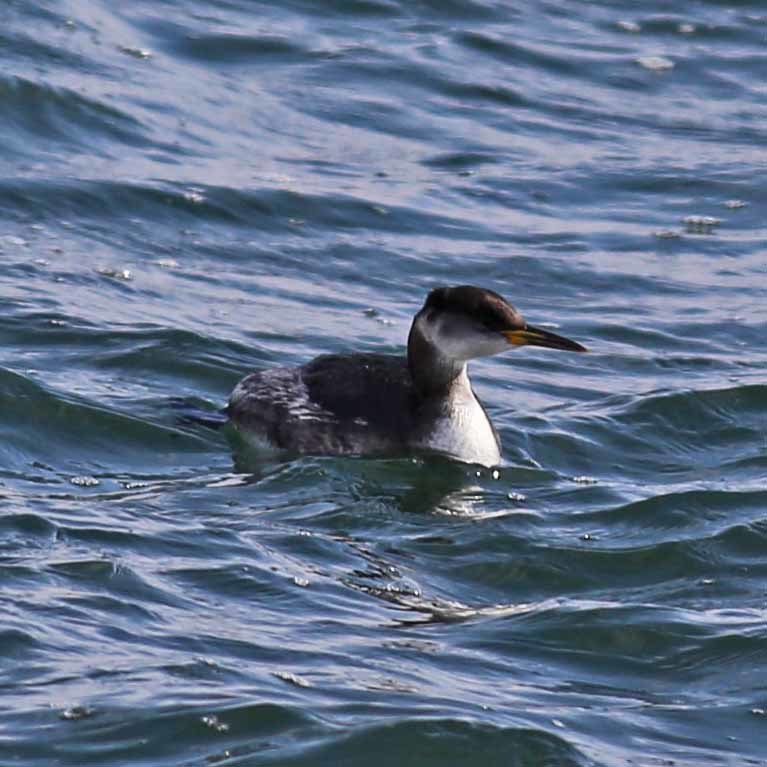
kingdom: Animalia
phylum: Chordata
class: Aves
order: Podicipediformes
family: Podicipedidae
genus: Podiceps
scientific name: Podiceps grisegena
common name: Red-necked grebe
